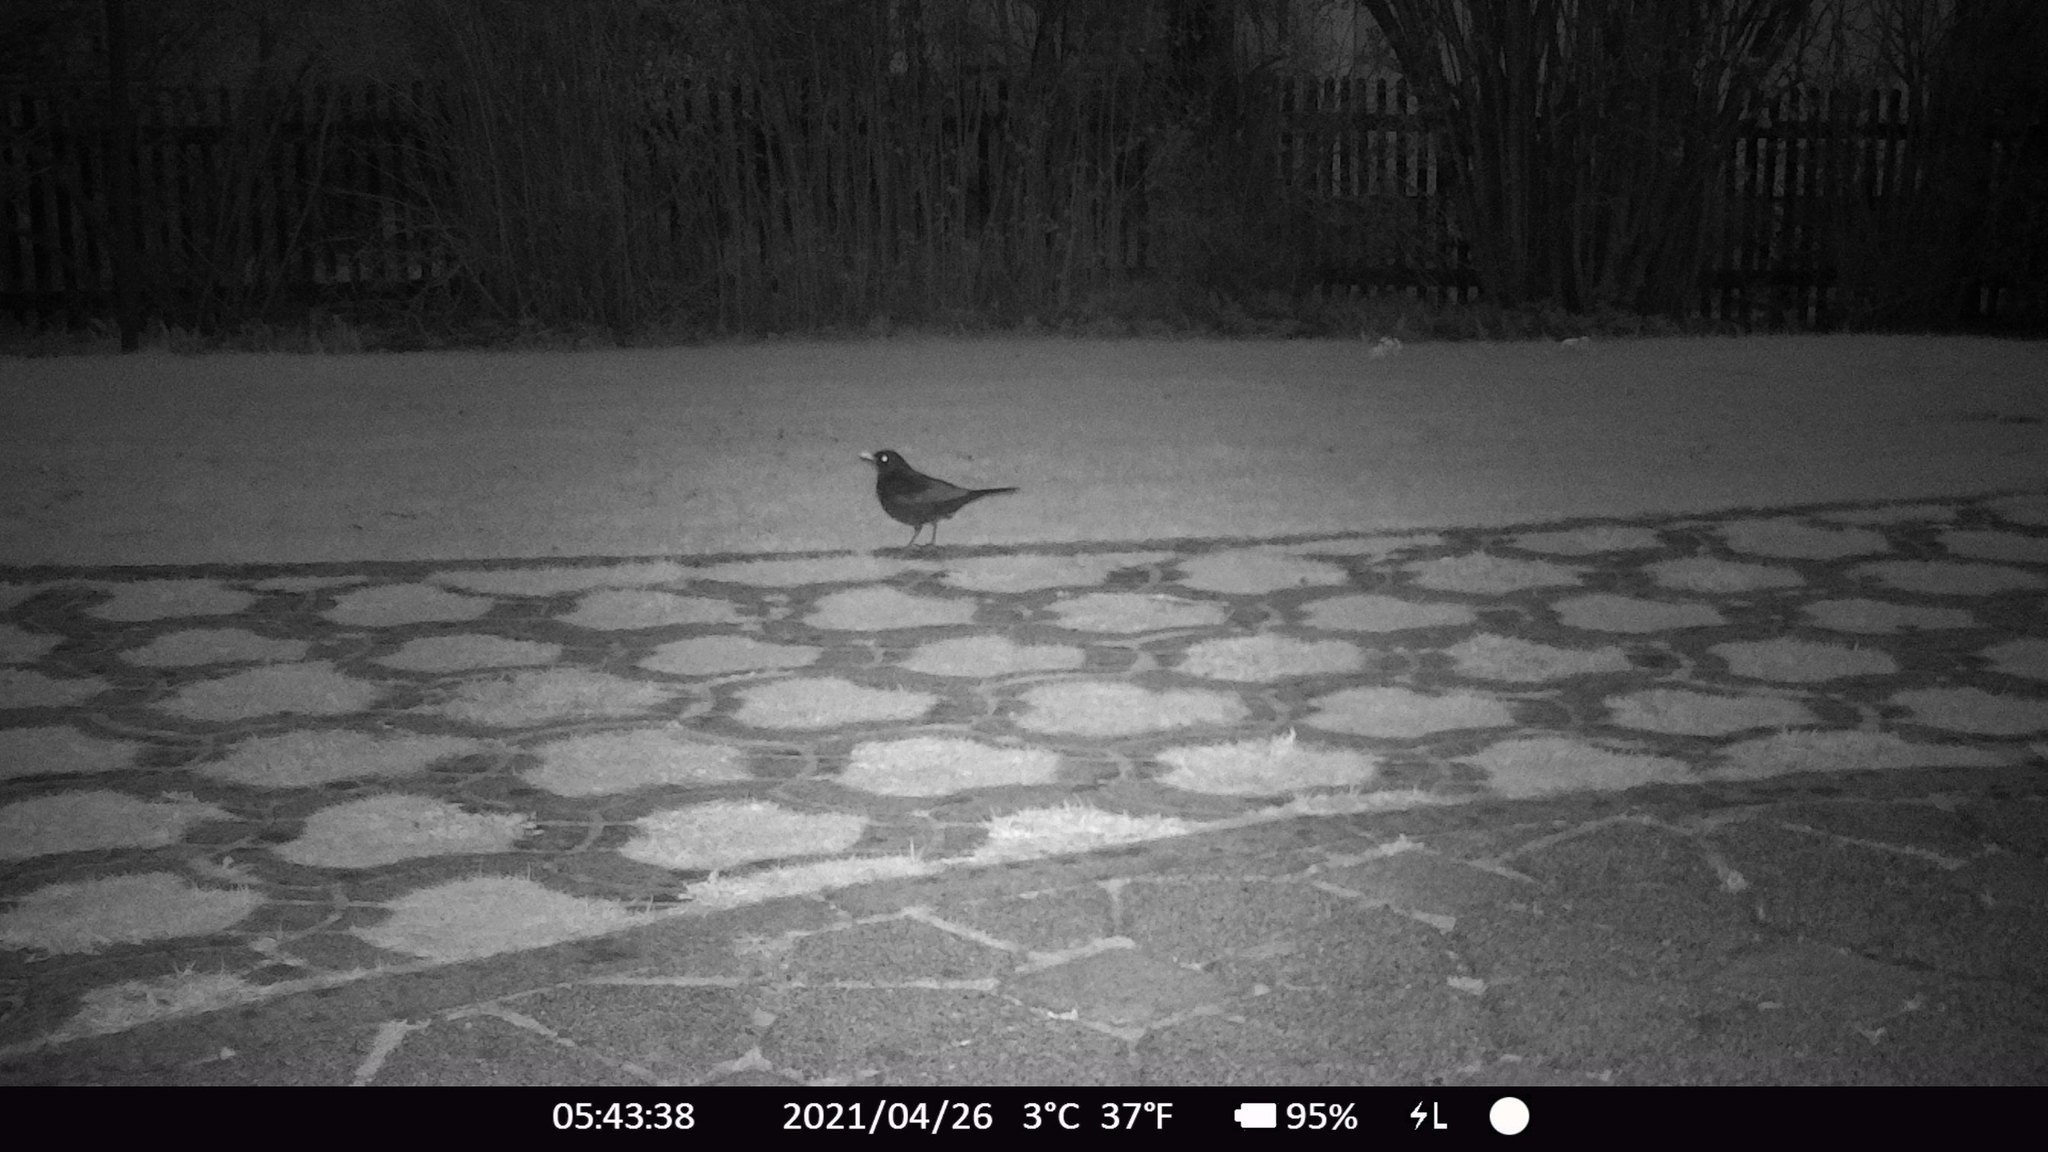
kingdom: Animalia
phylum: Chordata
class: Aves
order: Passeriformes
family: Turdidae
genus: Turdus
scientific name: Turdus merula
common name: Common blackbird
